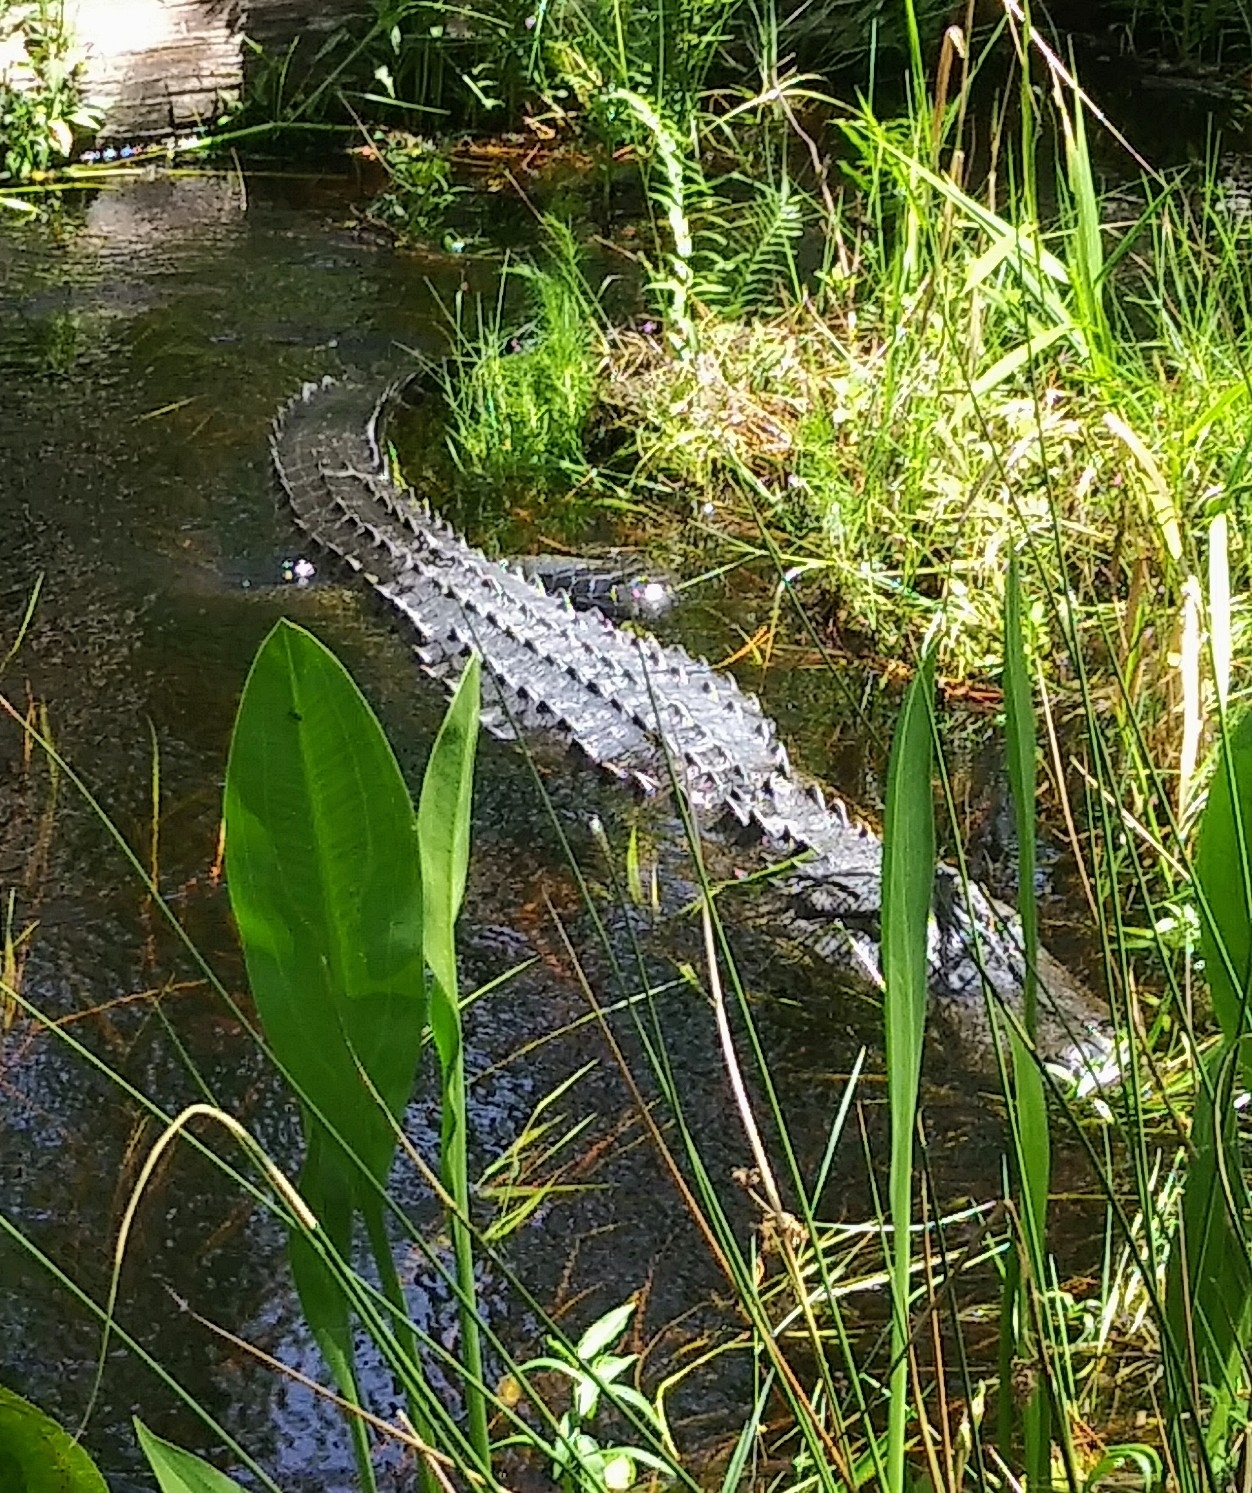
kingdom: Animalia
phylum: Chordata
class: Crocodylia
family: Alligatoridae
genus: Alligator
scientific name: Alligator mississippiensis
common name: American alligator
